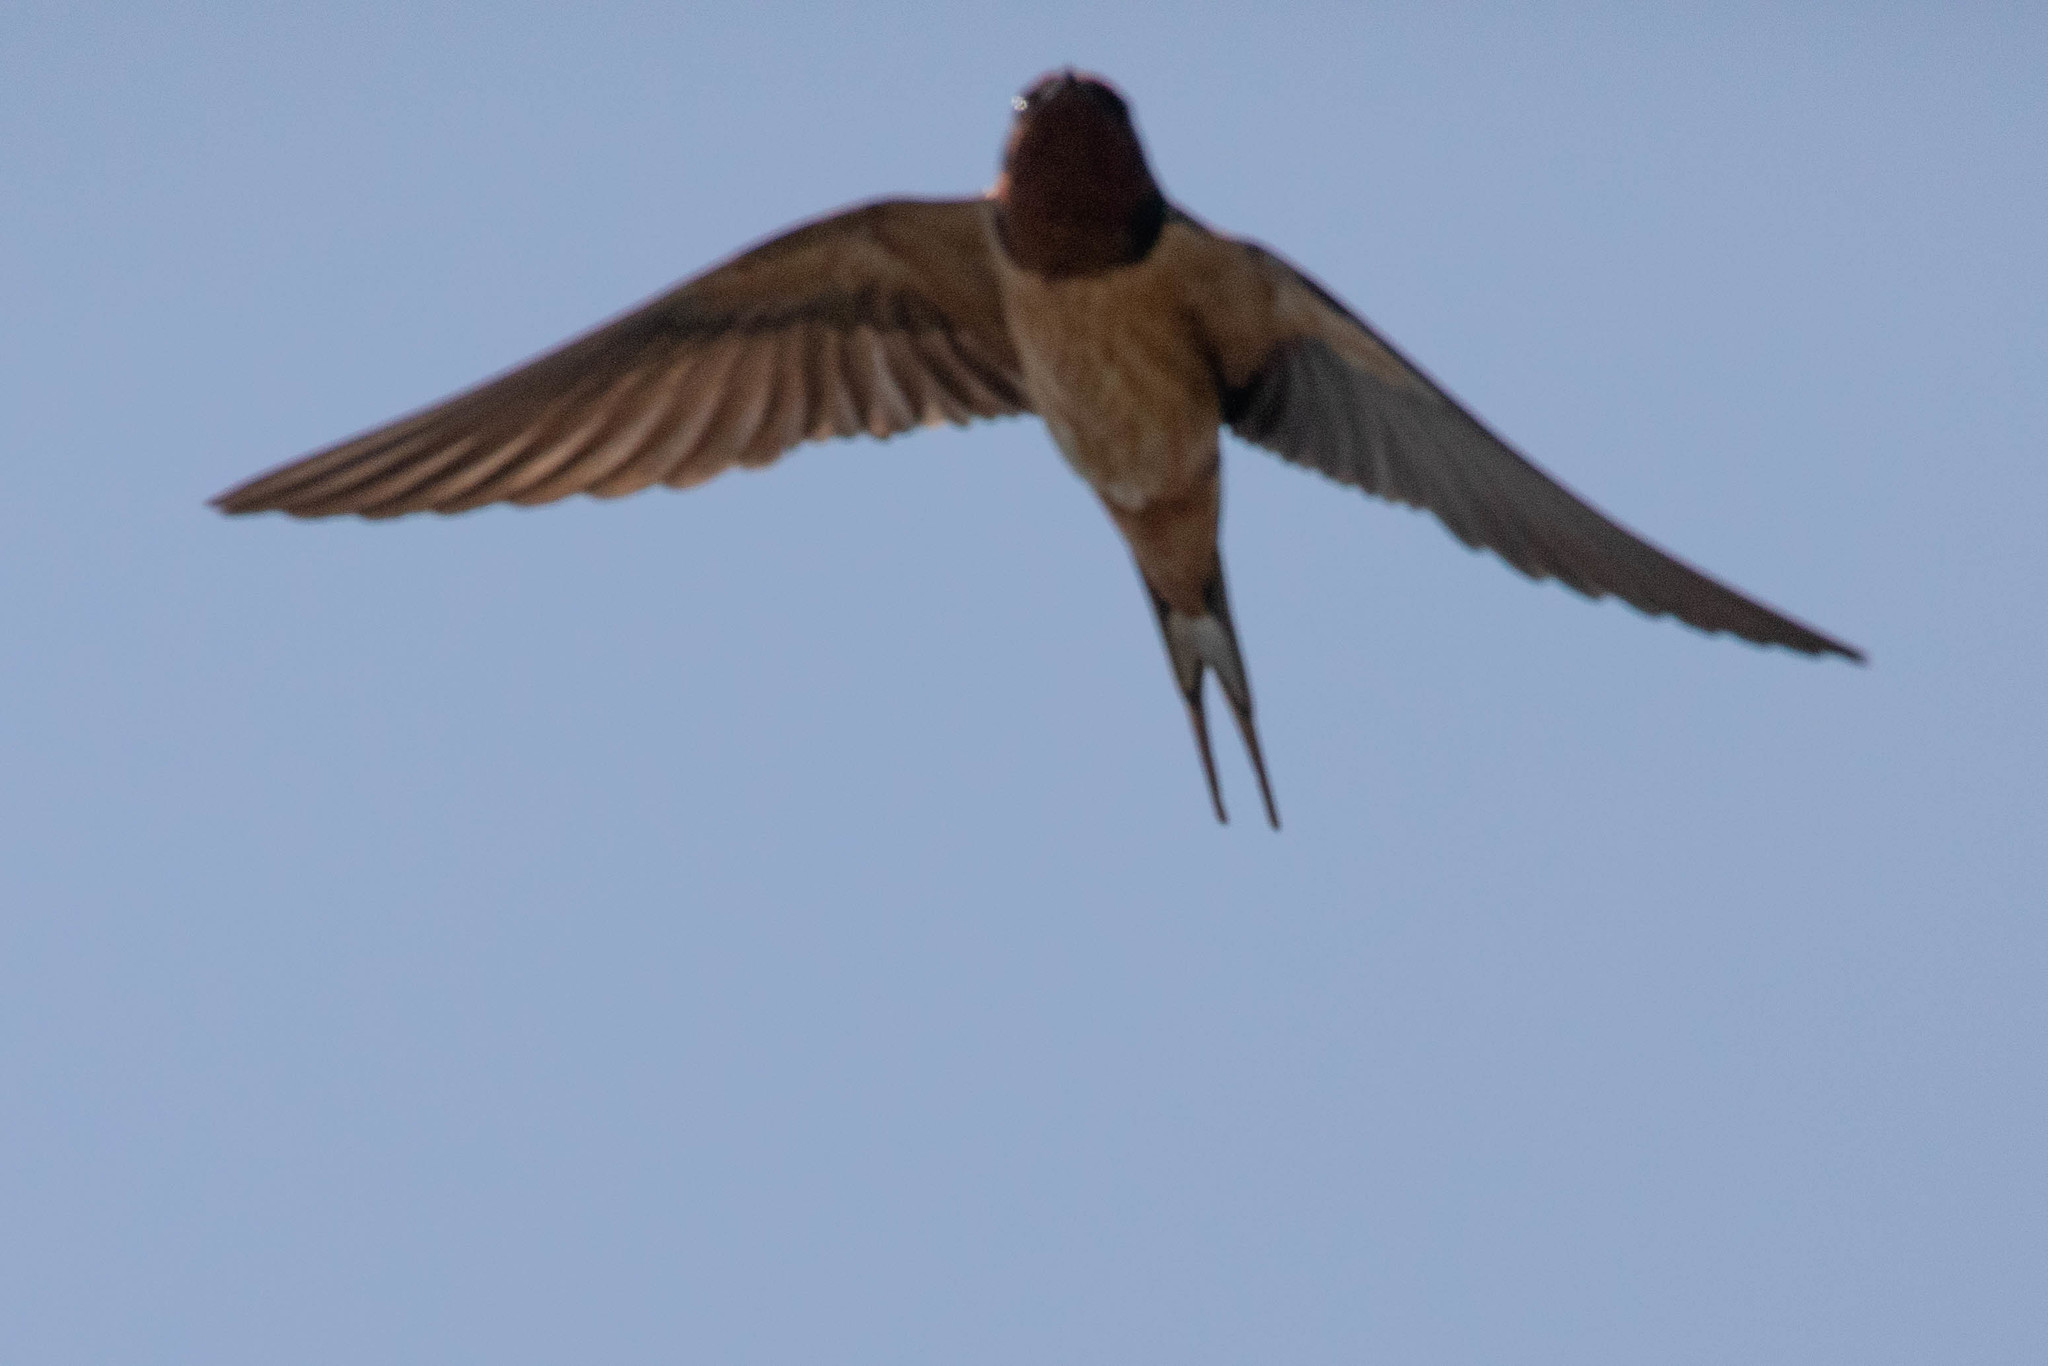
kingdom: Animalia
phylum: Chordata
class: Aves
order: Passeriformes
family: Hirundinidae
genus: Hirundo
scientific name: Hirundo rustica
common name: Barn swallow
